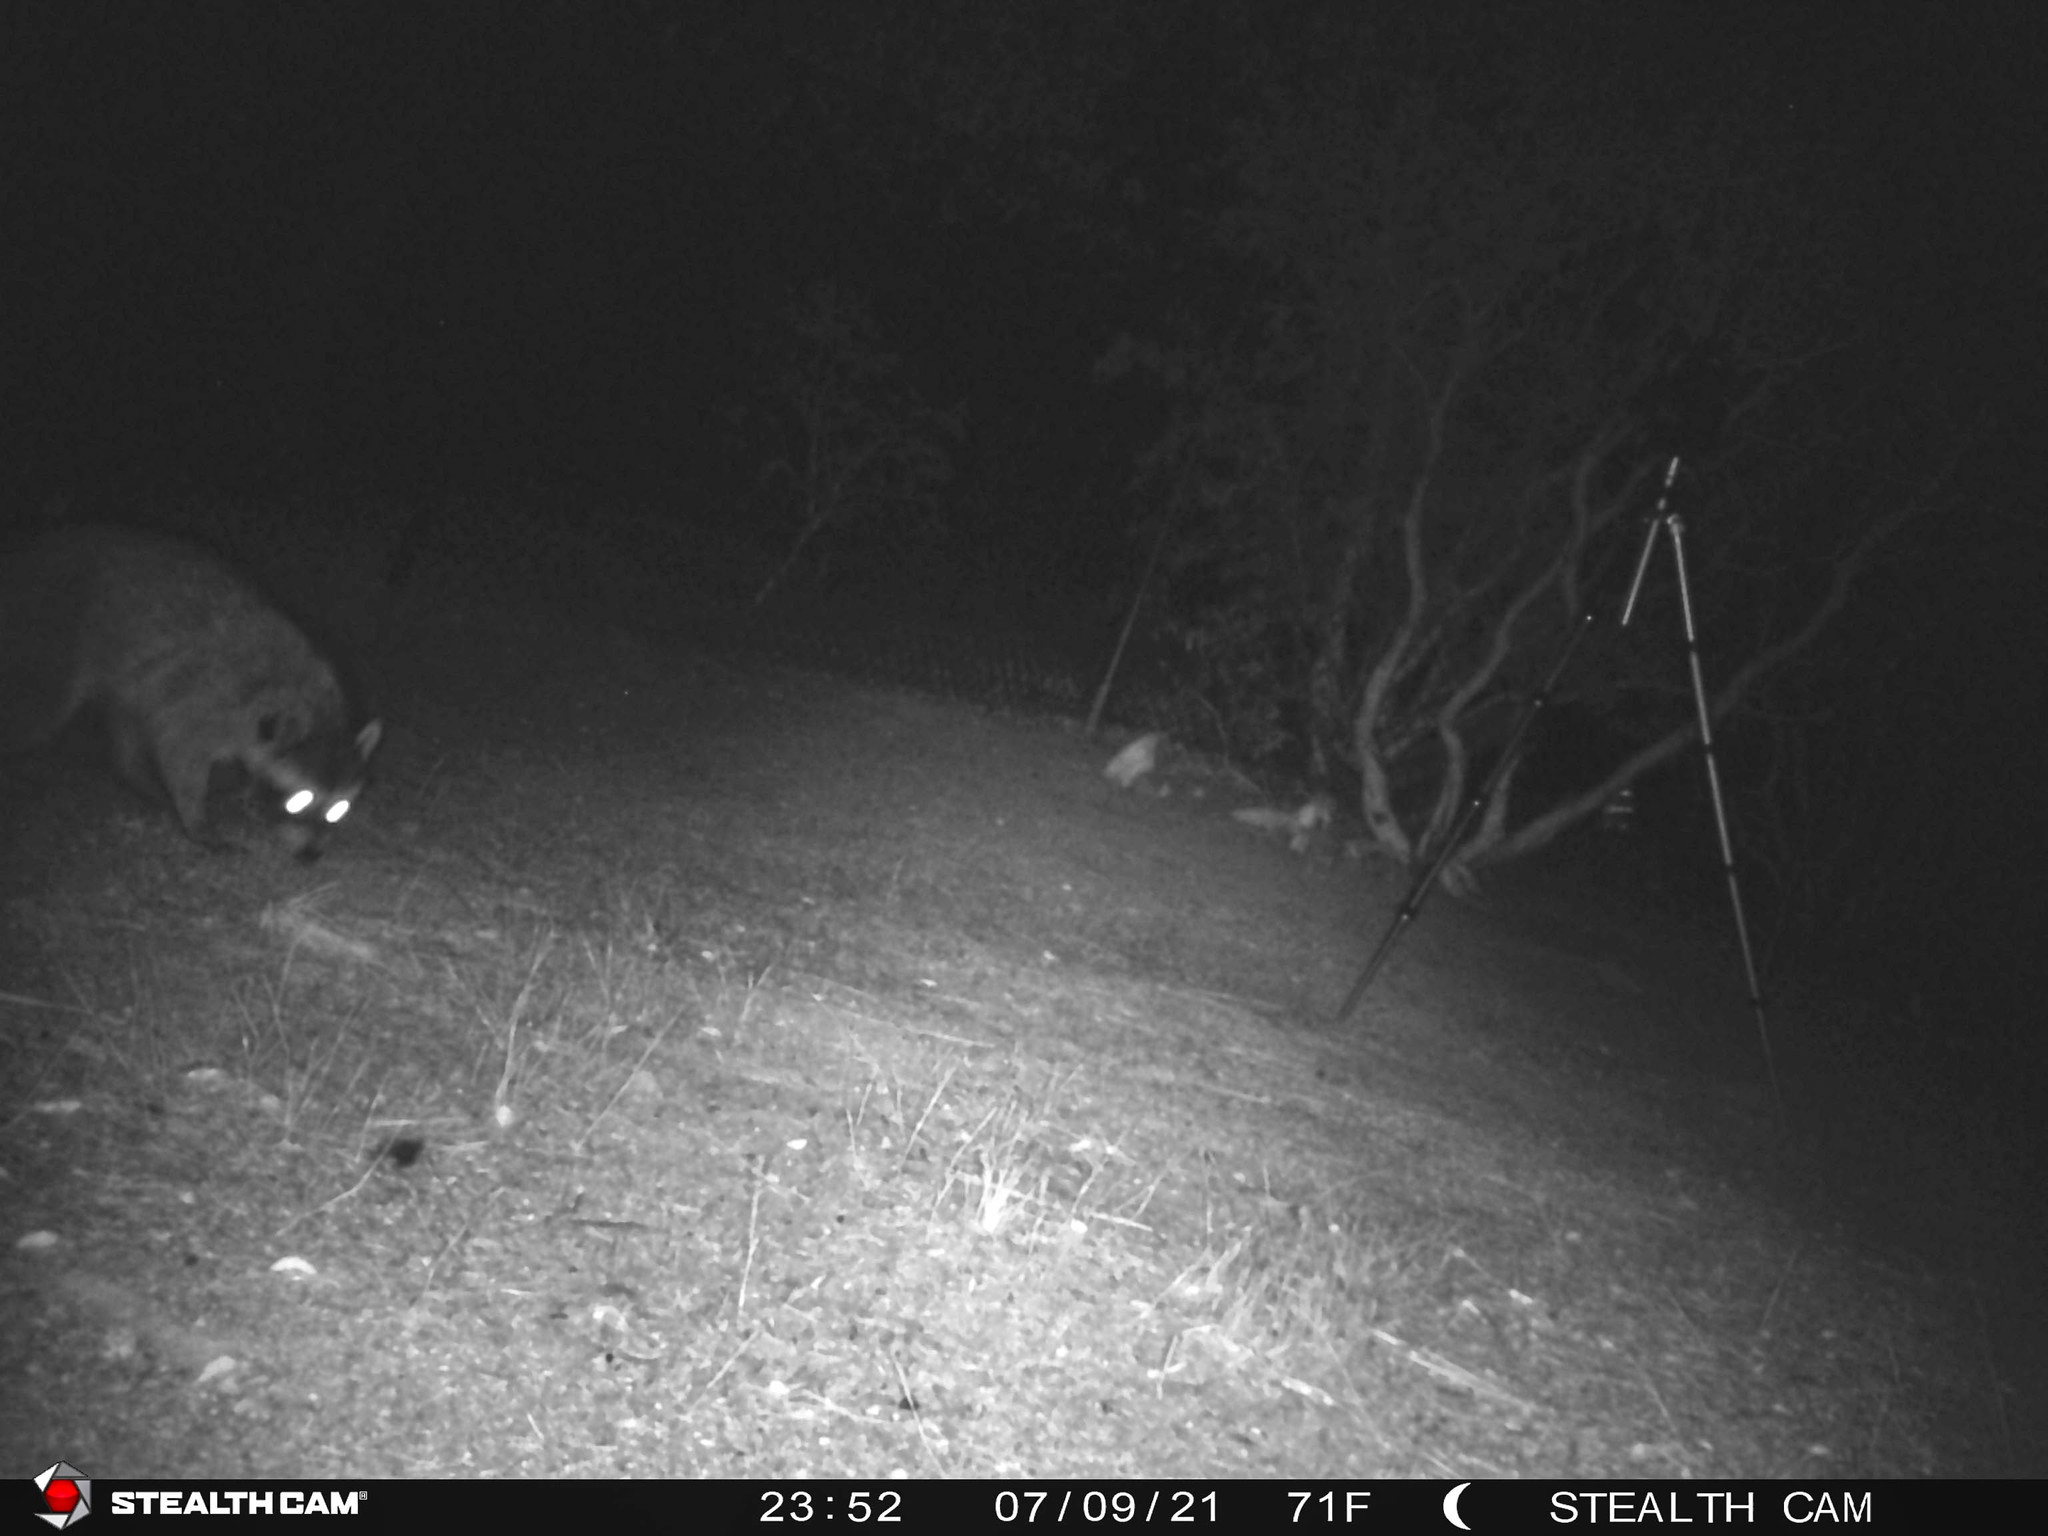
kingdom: Animalia
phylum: Chordata
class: Mammalia
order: Carnivora
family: Procyonidae
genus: Procyon
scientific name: Procyon lotor
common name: Raccoon
